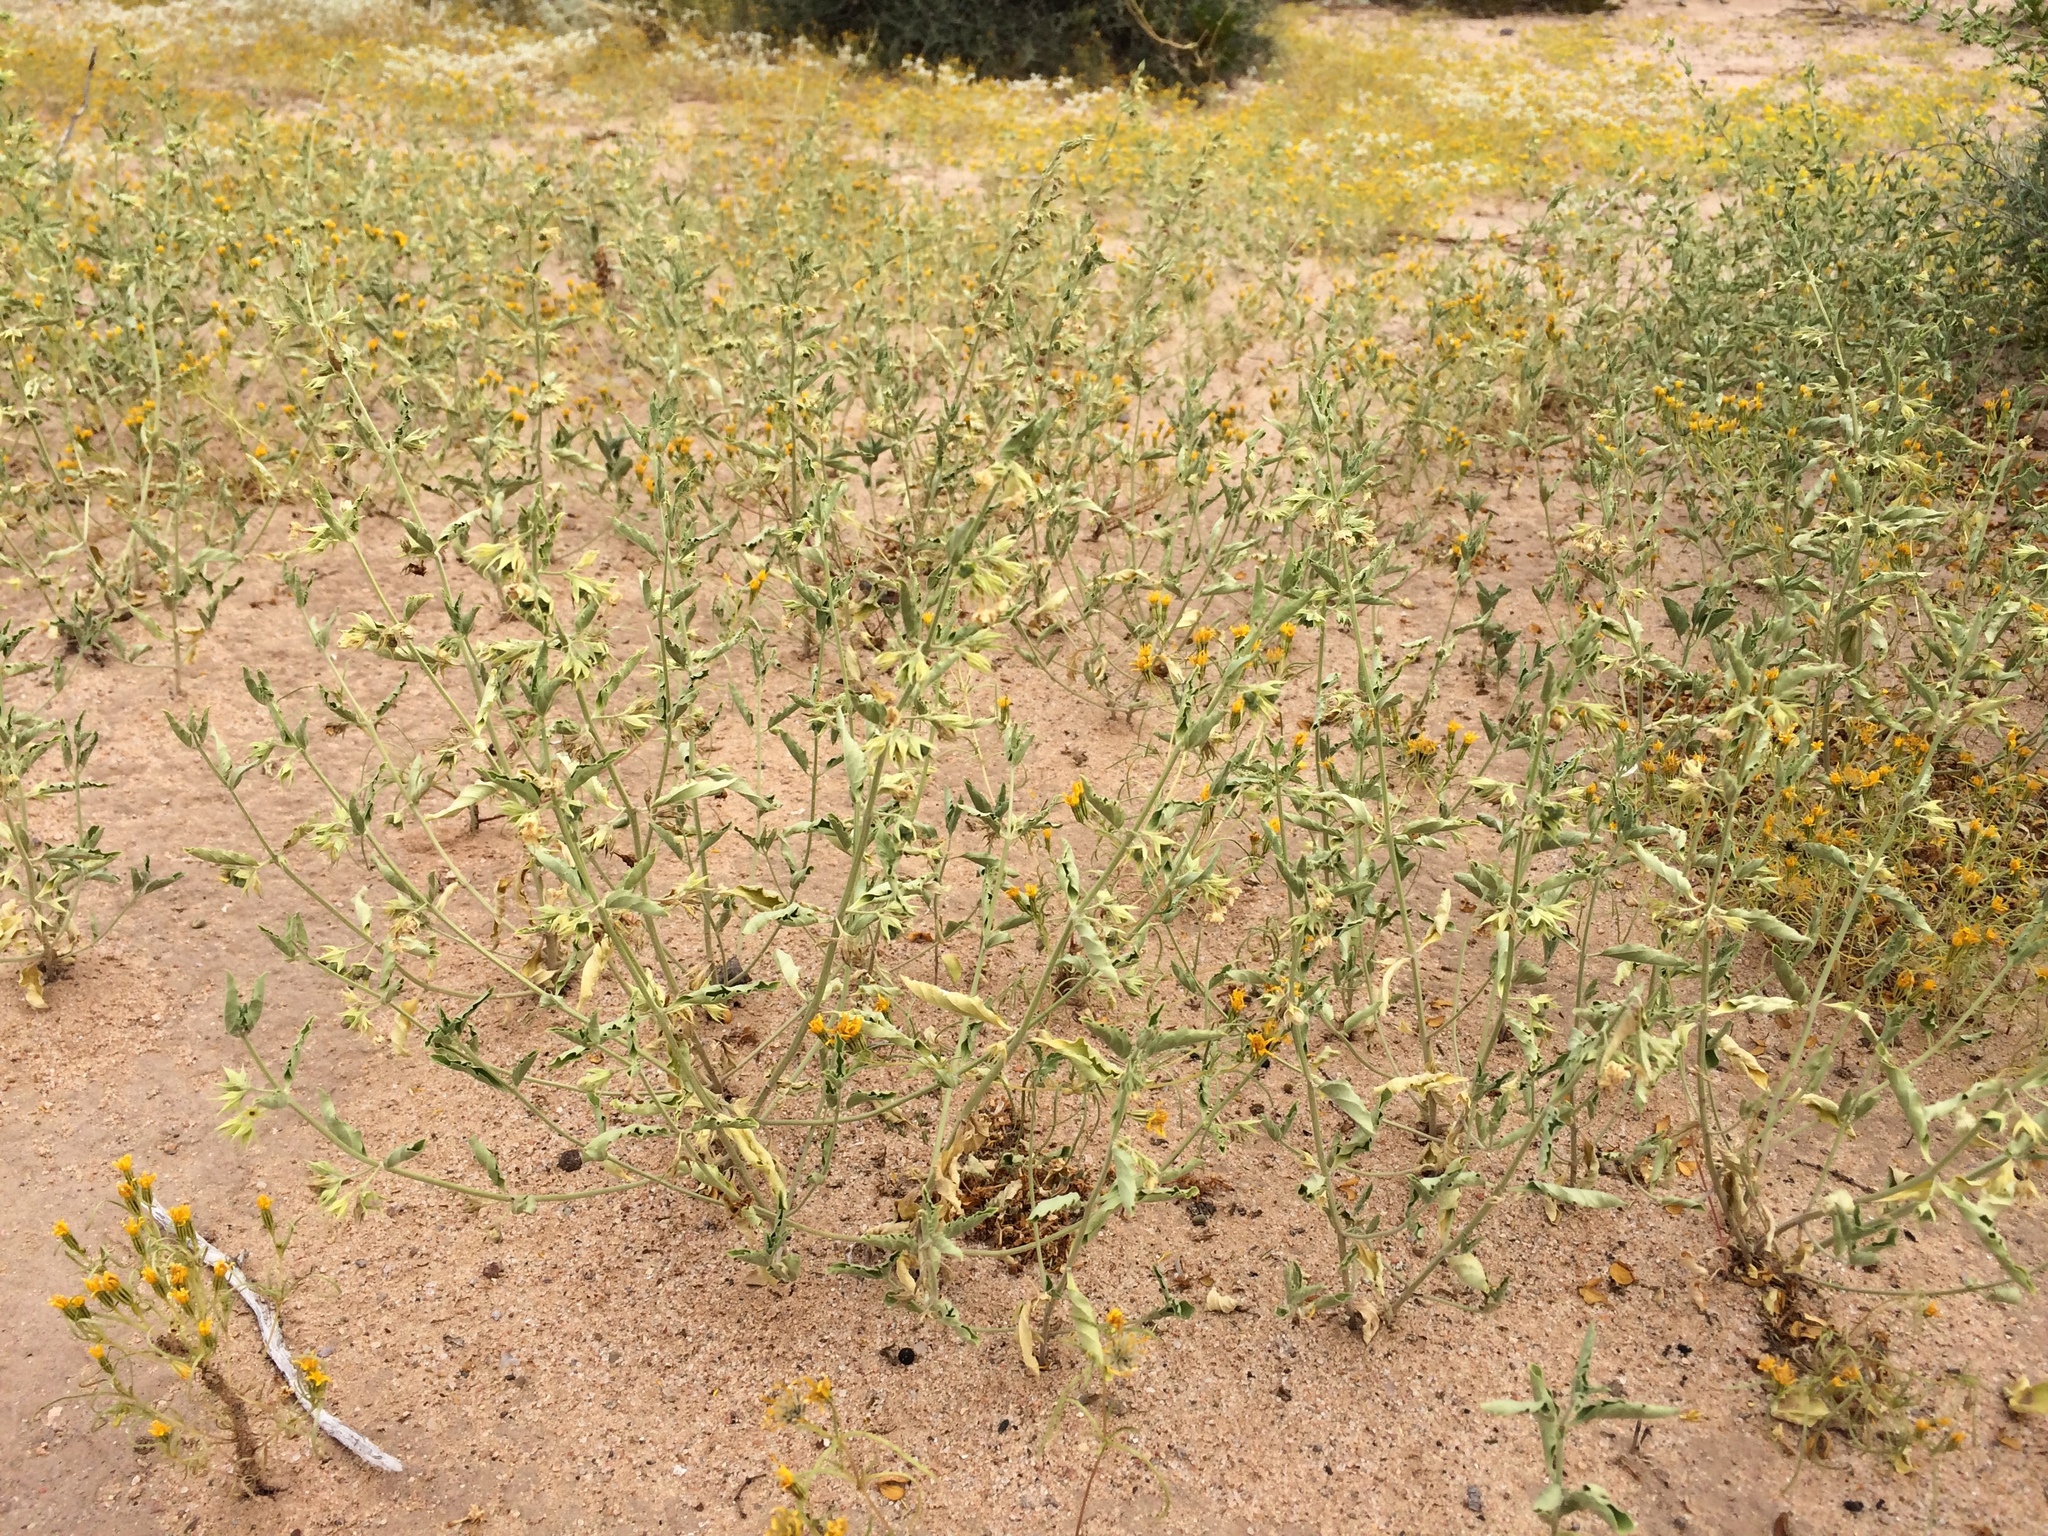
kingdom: Plantae
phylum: Tracheophyta
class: Magnoliopsida
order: Lamiales
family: Lamiaceae
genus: Tetraclea
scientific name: Tetraclea coulteri
